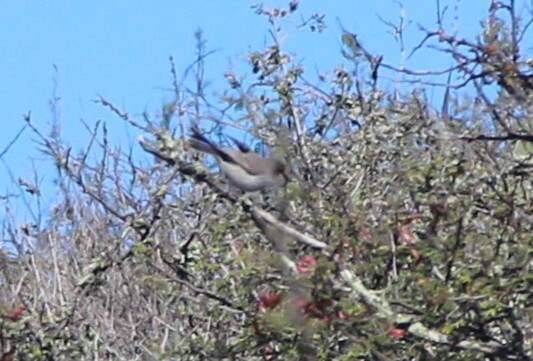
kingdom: Animalia
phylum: Chordata
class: Aves
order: Passeriformes
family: Remizidae
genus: Auriparus
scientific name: Auriparus flaviceps
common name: Verdin
